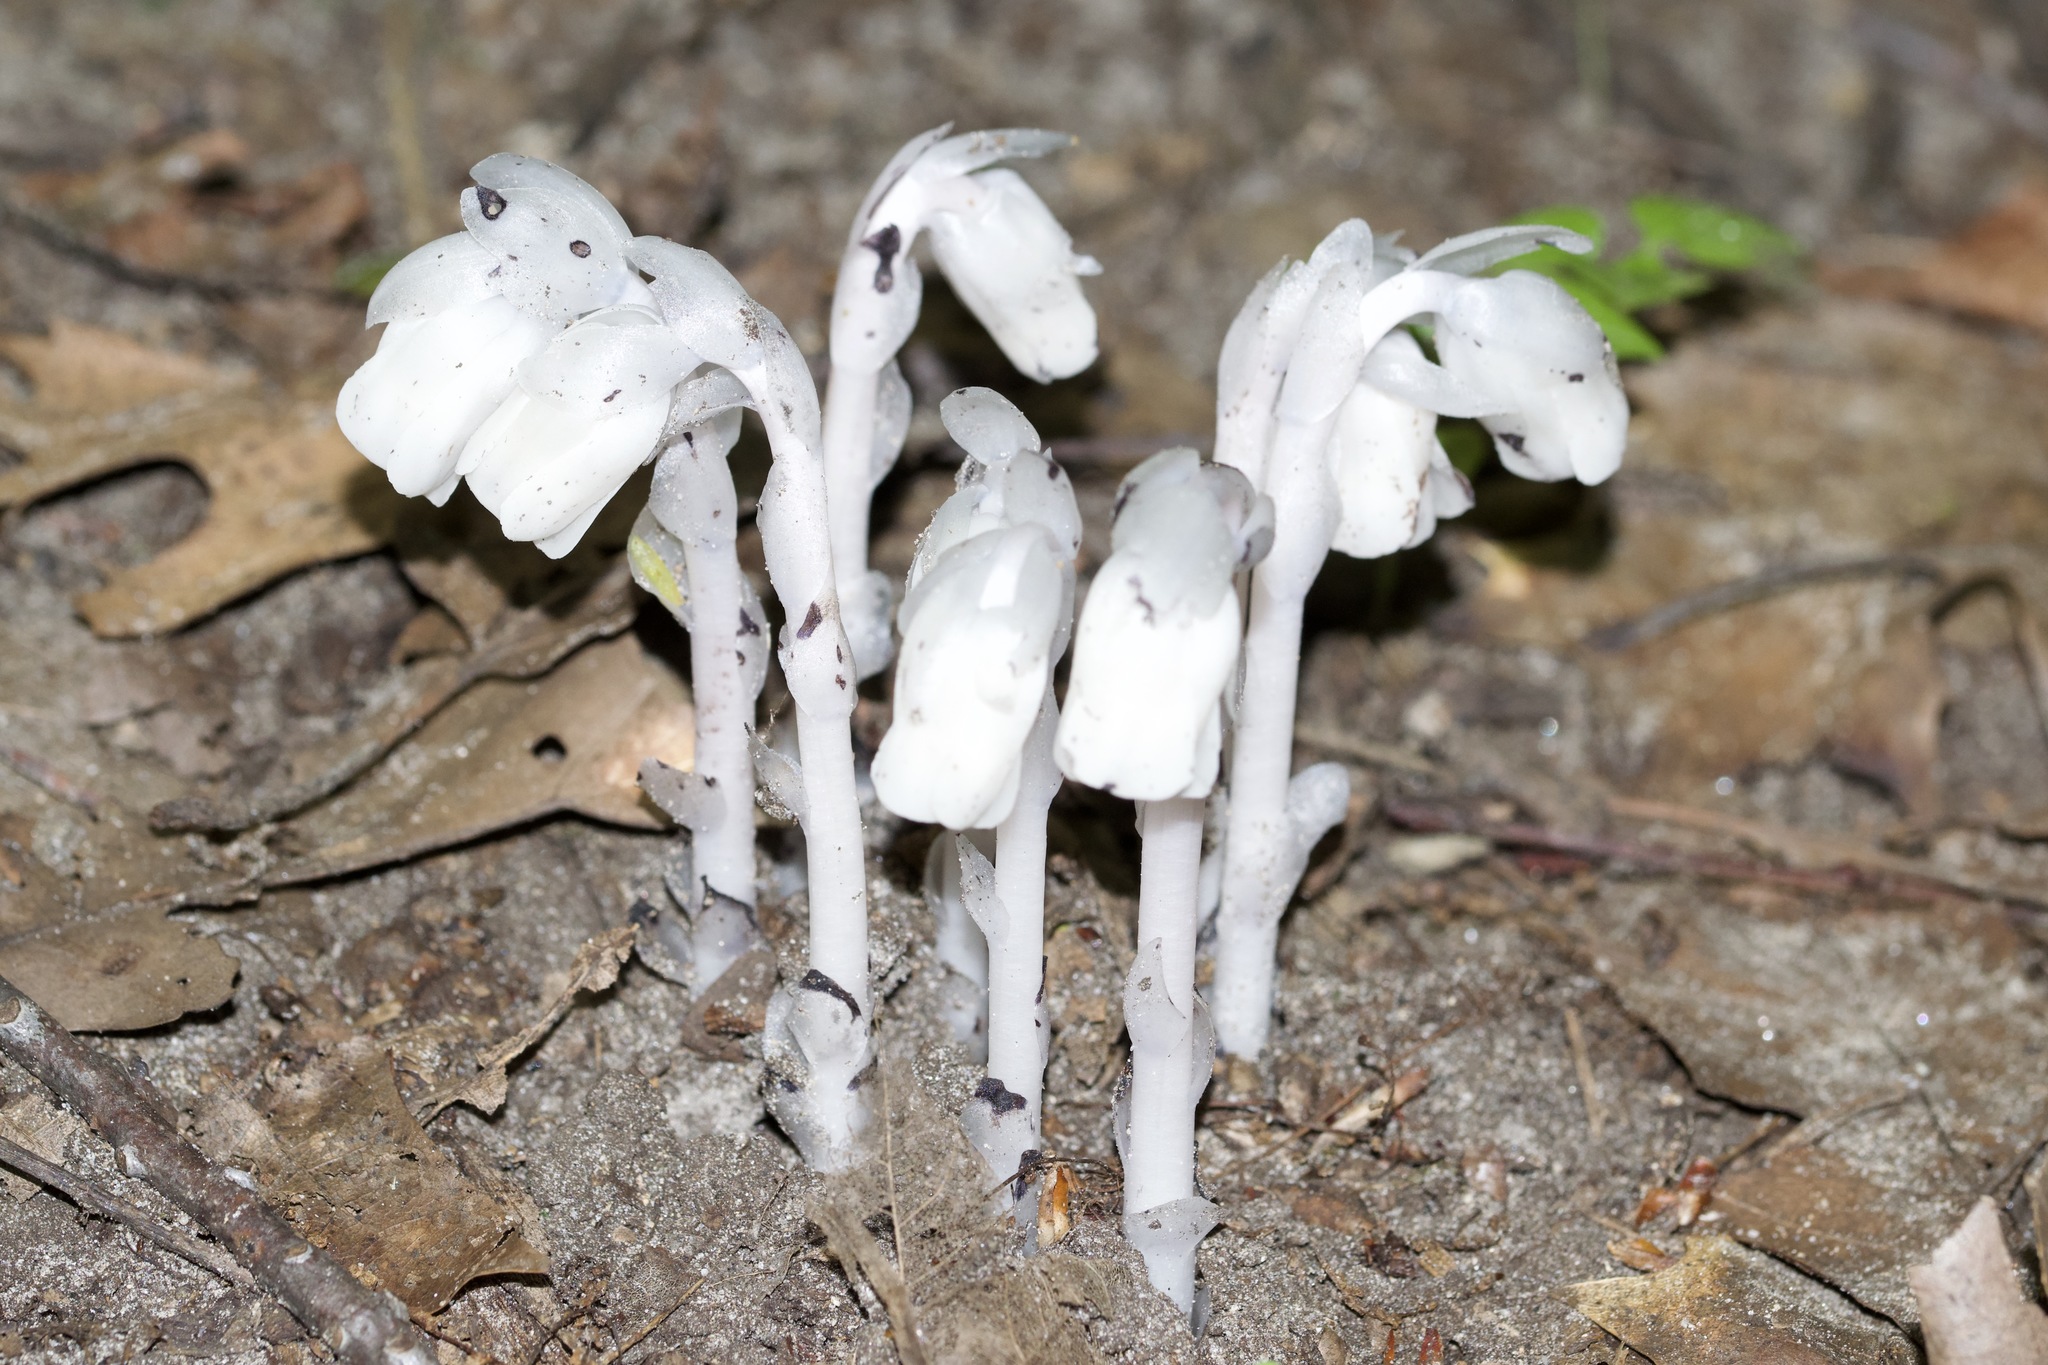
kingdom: Plantae
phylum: Tracheophyta
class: Magnoliopsida
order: Ericales
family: Ericaceae
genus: Monotropa
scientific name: Monotropa uniflora
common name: Convulsion root
